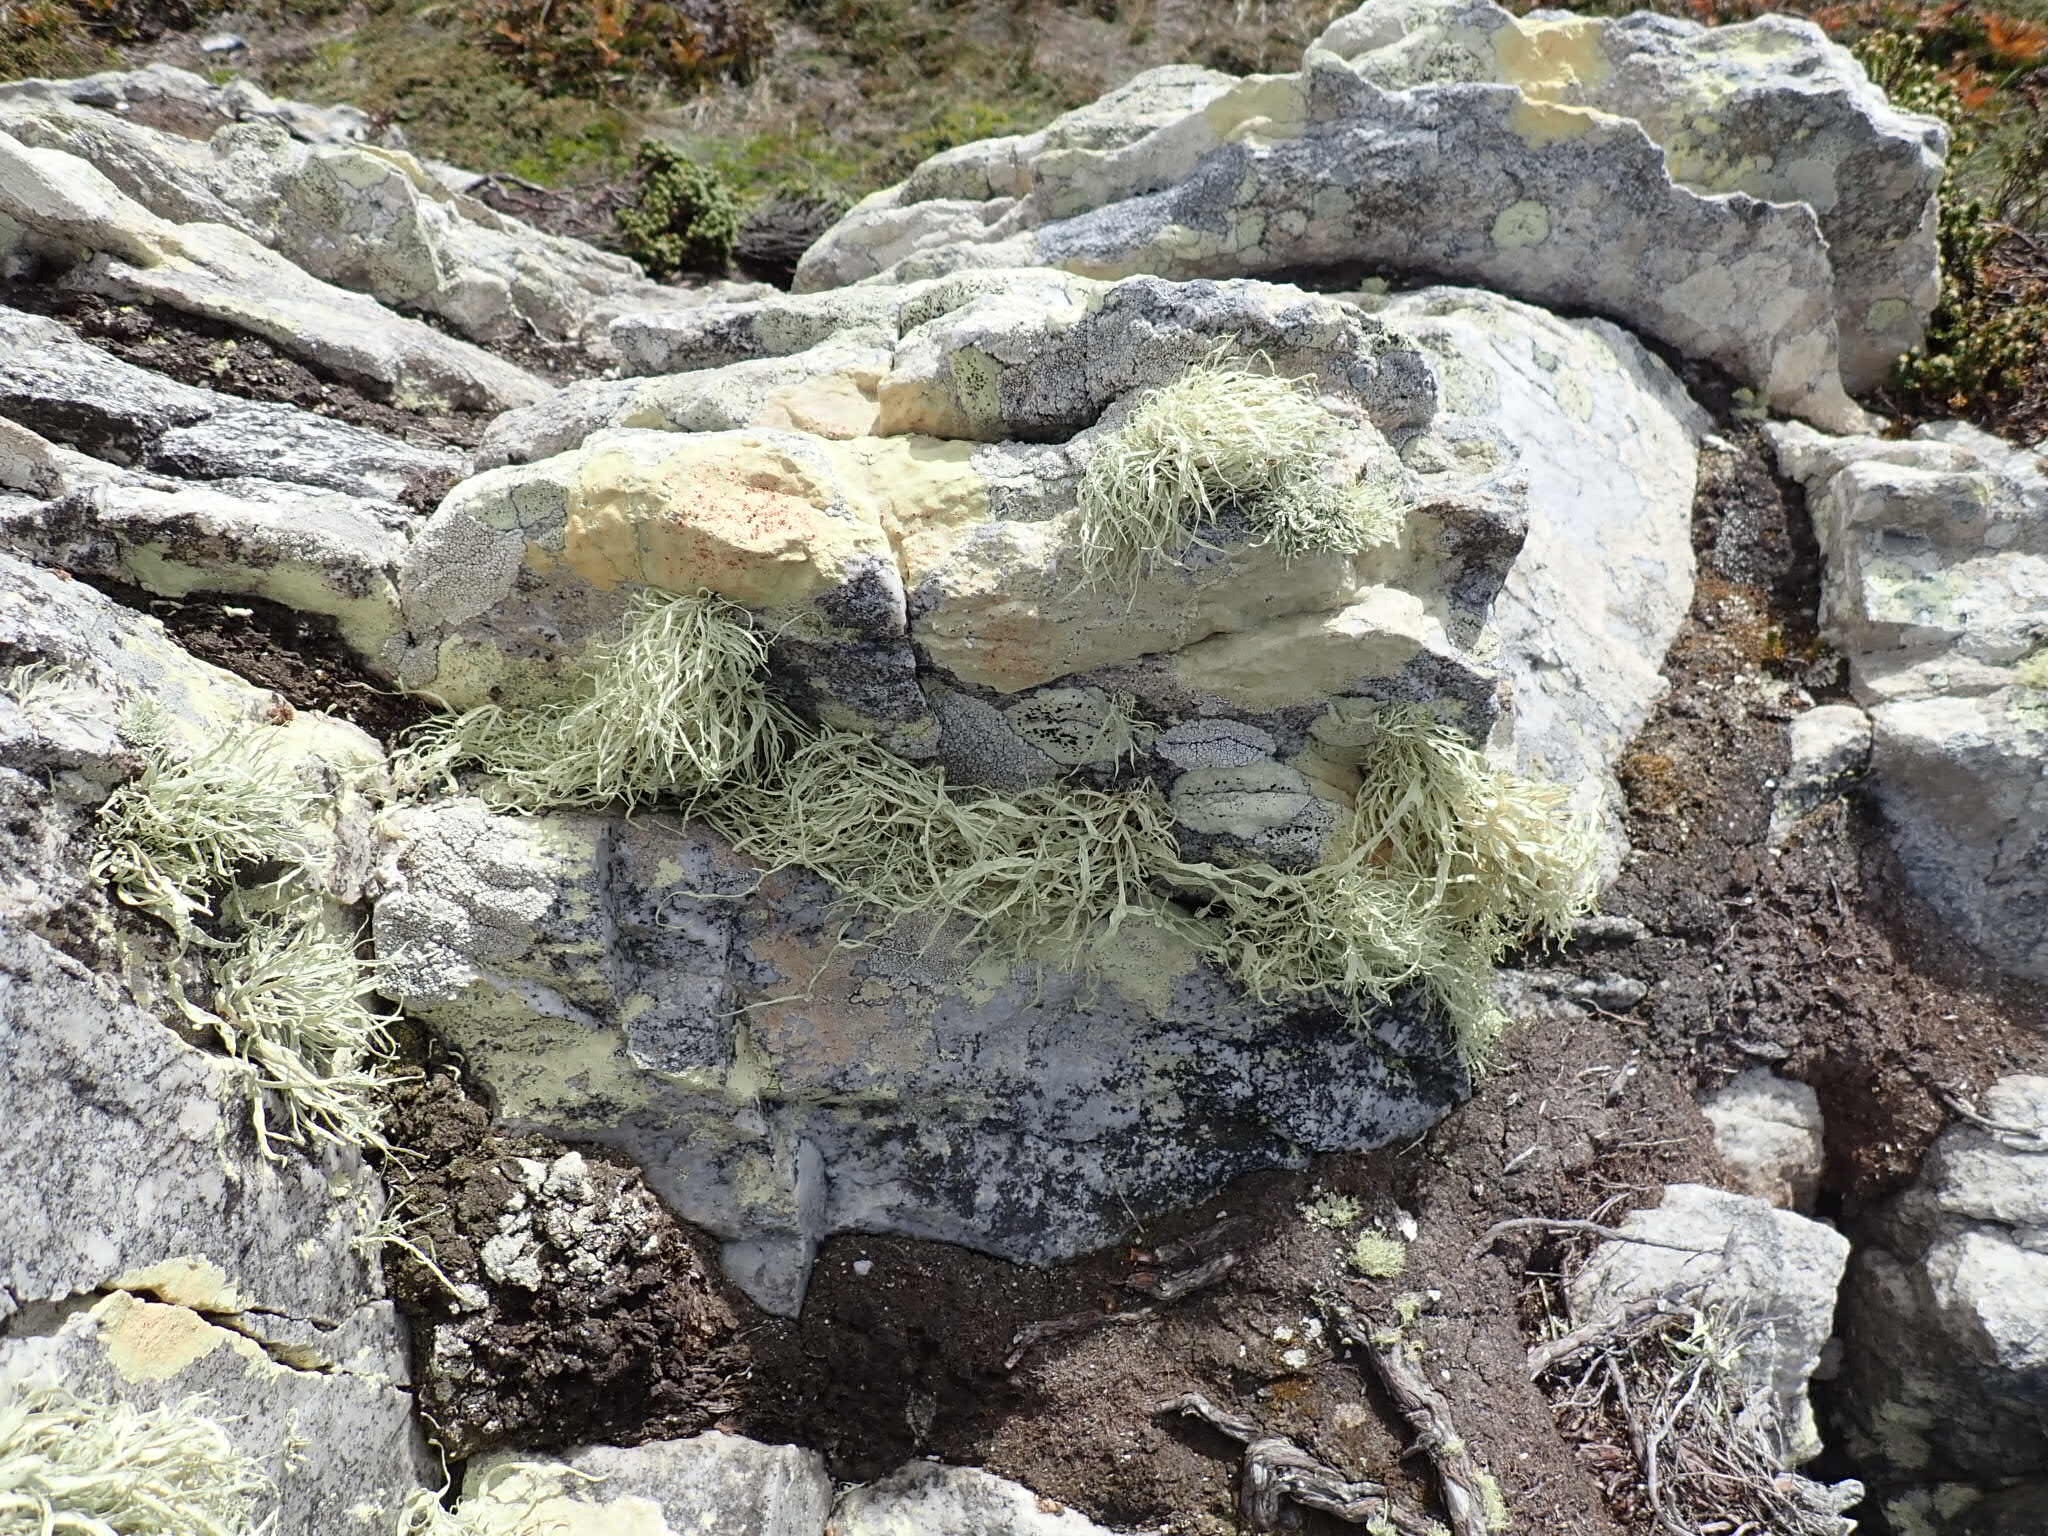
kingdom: Fungi
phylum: Ascomycota
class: Lecanoromycetes
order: Lecanorales
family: Ramalinaceae
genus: Ramalina
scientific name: Ramalina terebrata
